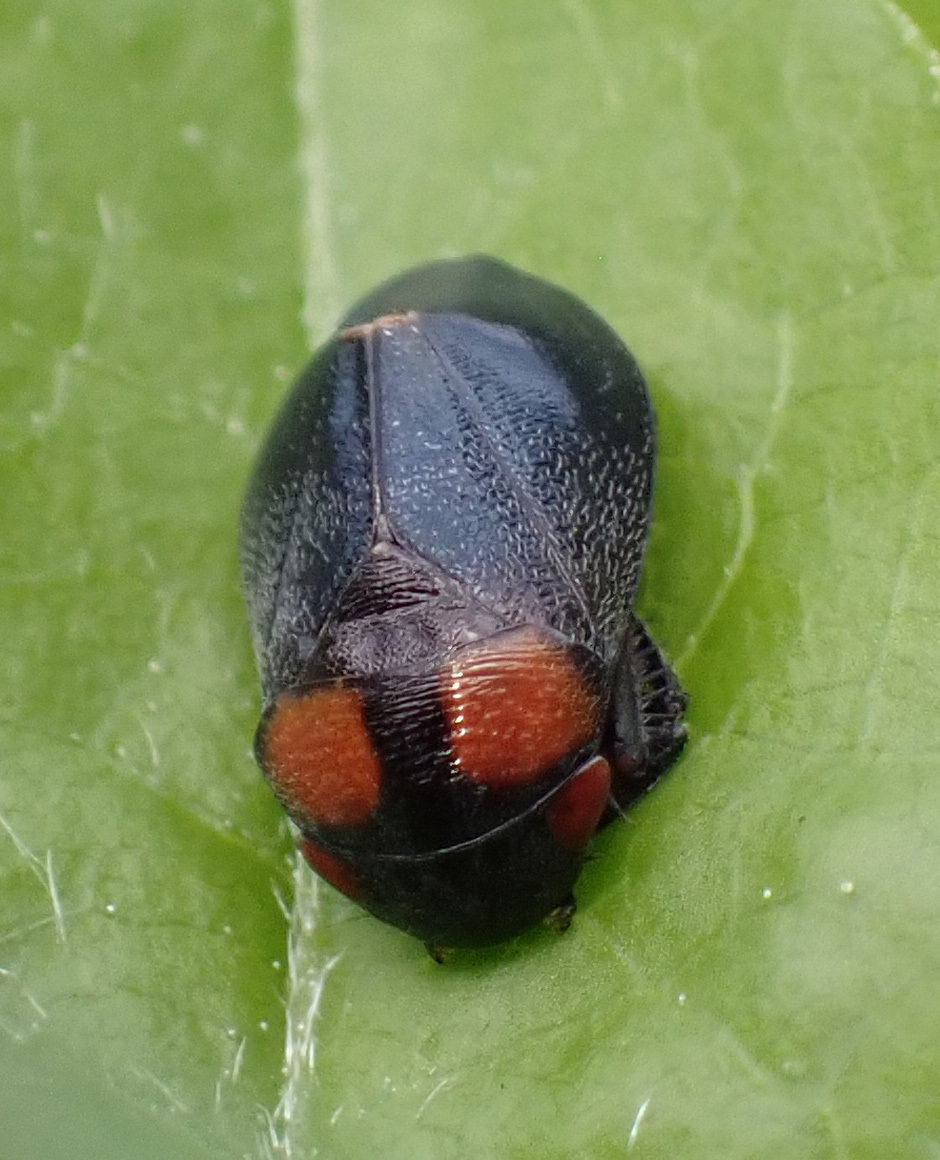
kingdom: Animalia
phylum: Arthropoda
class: Insecta
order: Hemiptera
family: Cicadellidae
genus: Penthimia
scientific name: Penthimia nigra
